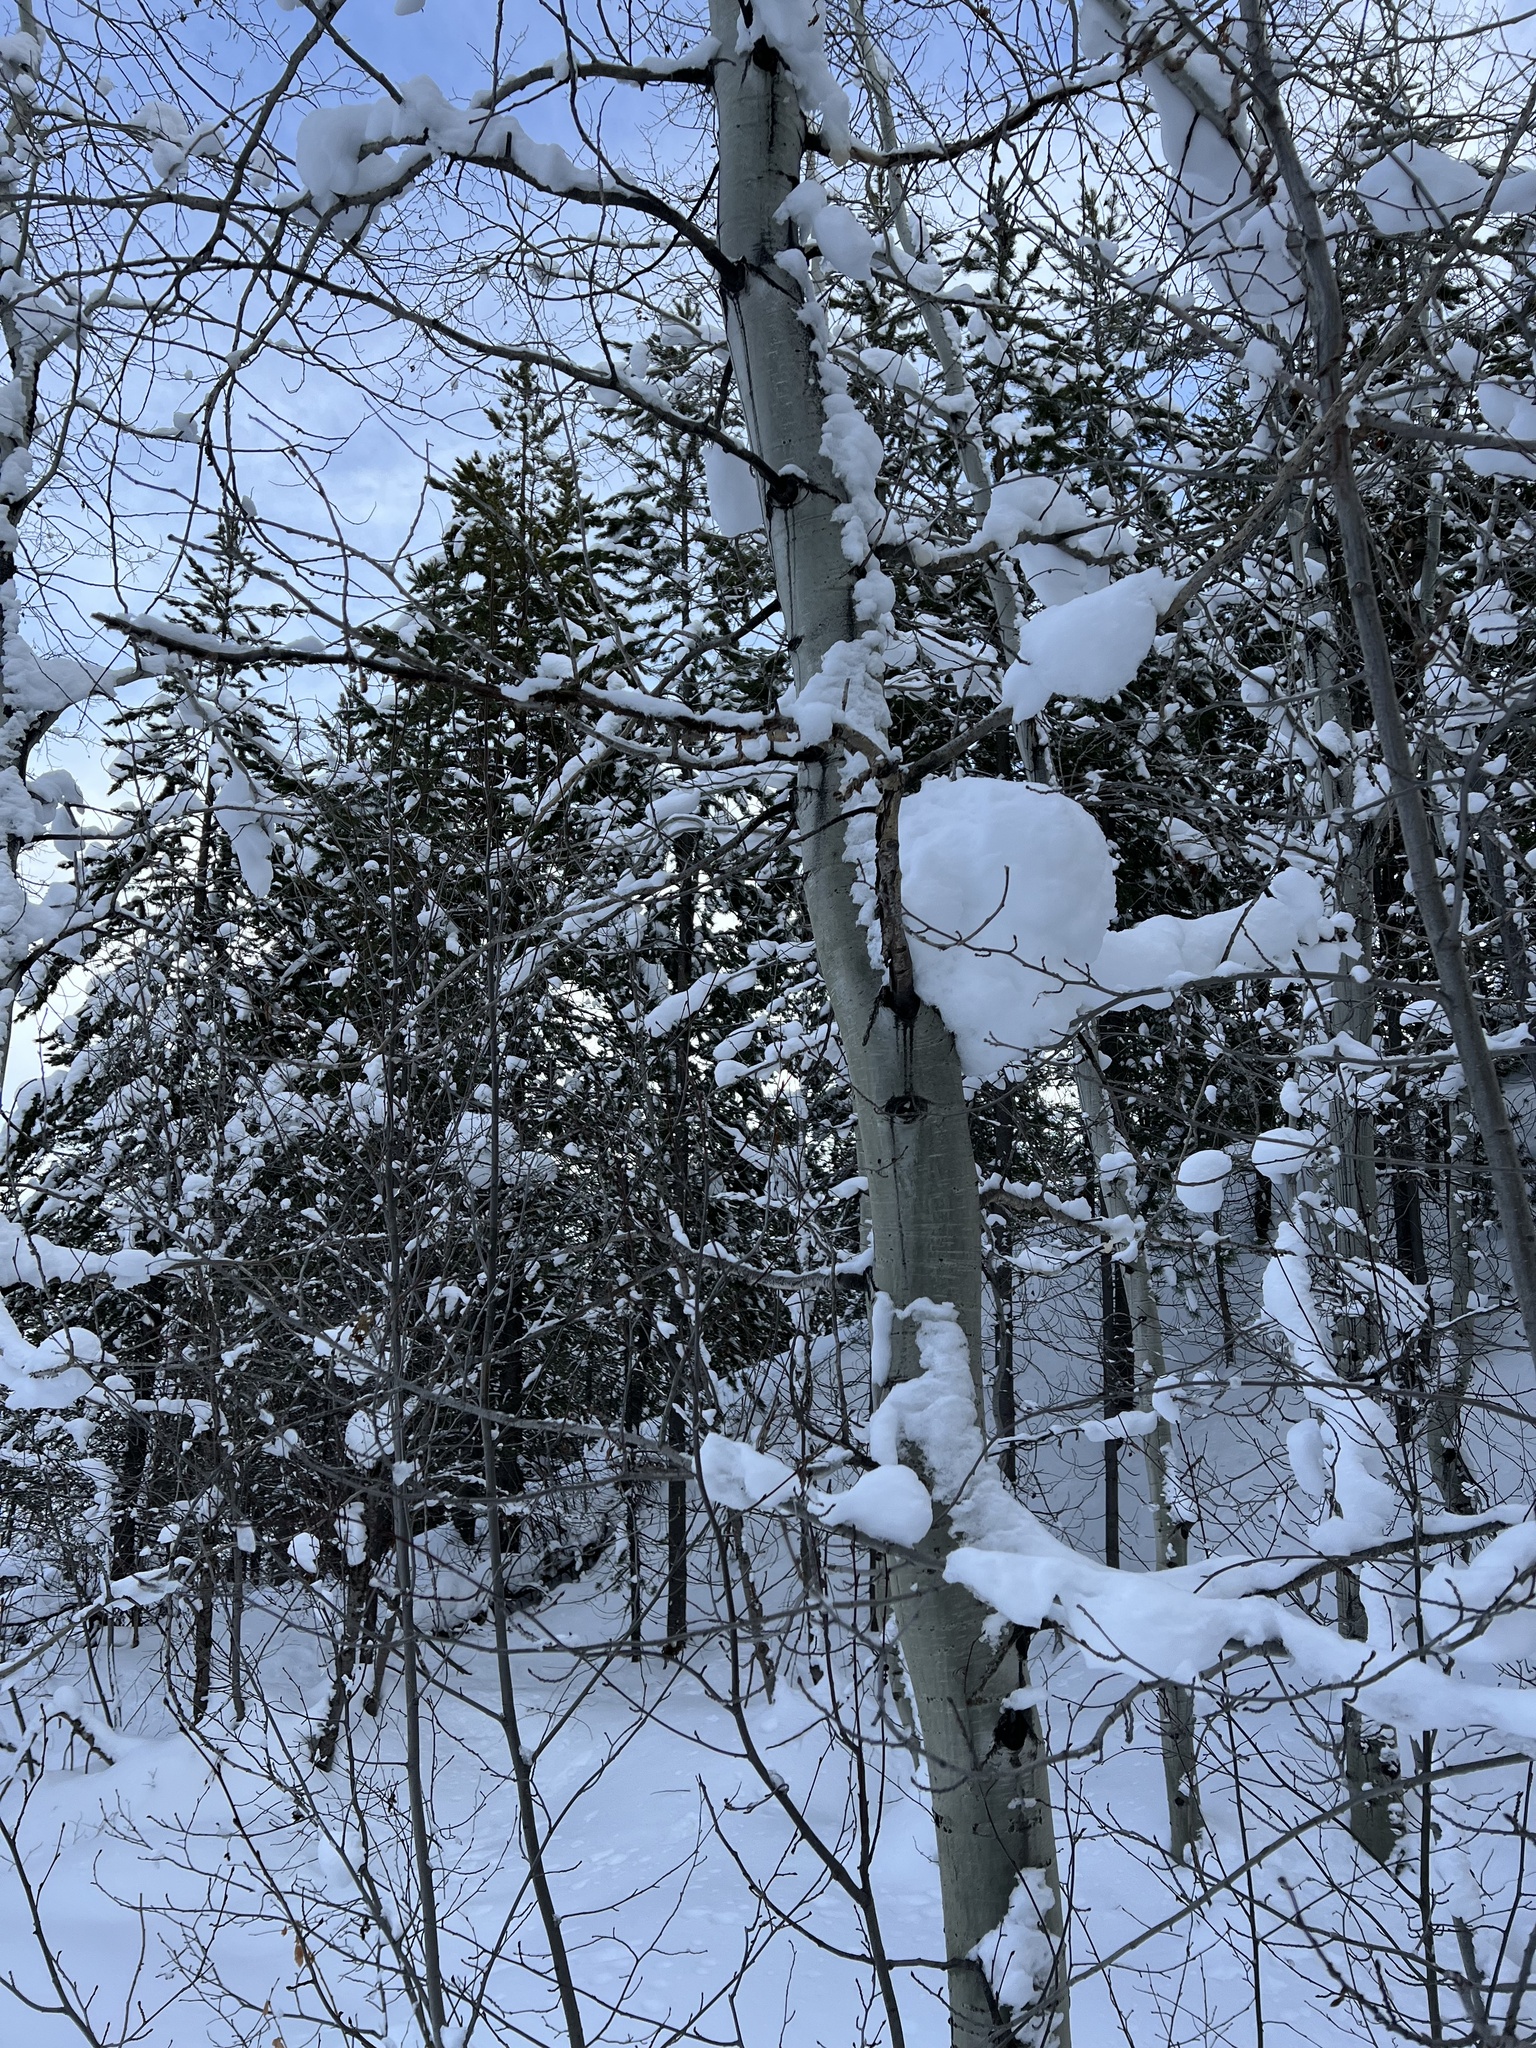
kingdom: Plantae
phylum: Tracheophyta
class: Magnoliopsida
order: Malpighiales
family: Salicaceae
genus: Populus
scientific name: Populus tremuloides
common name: Quaking aspen
